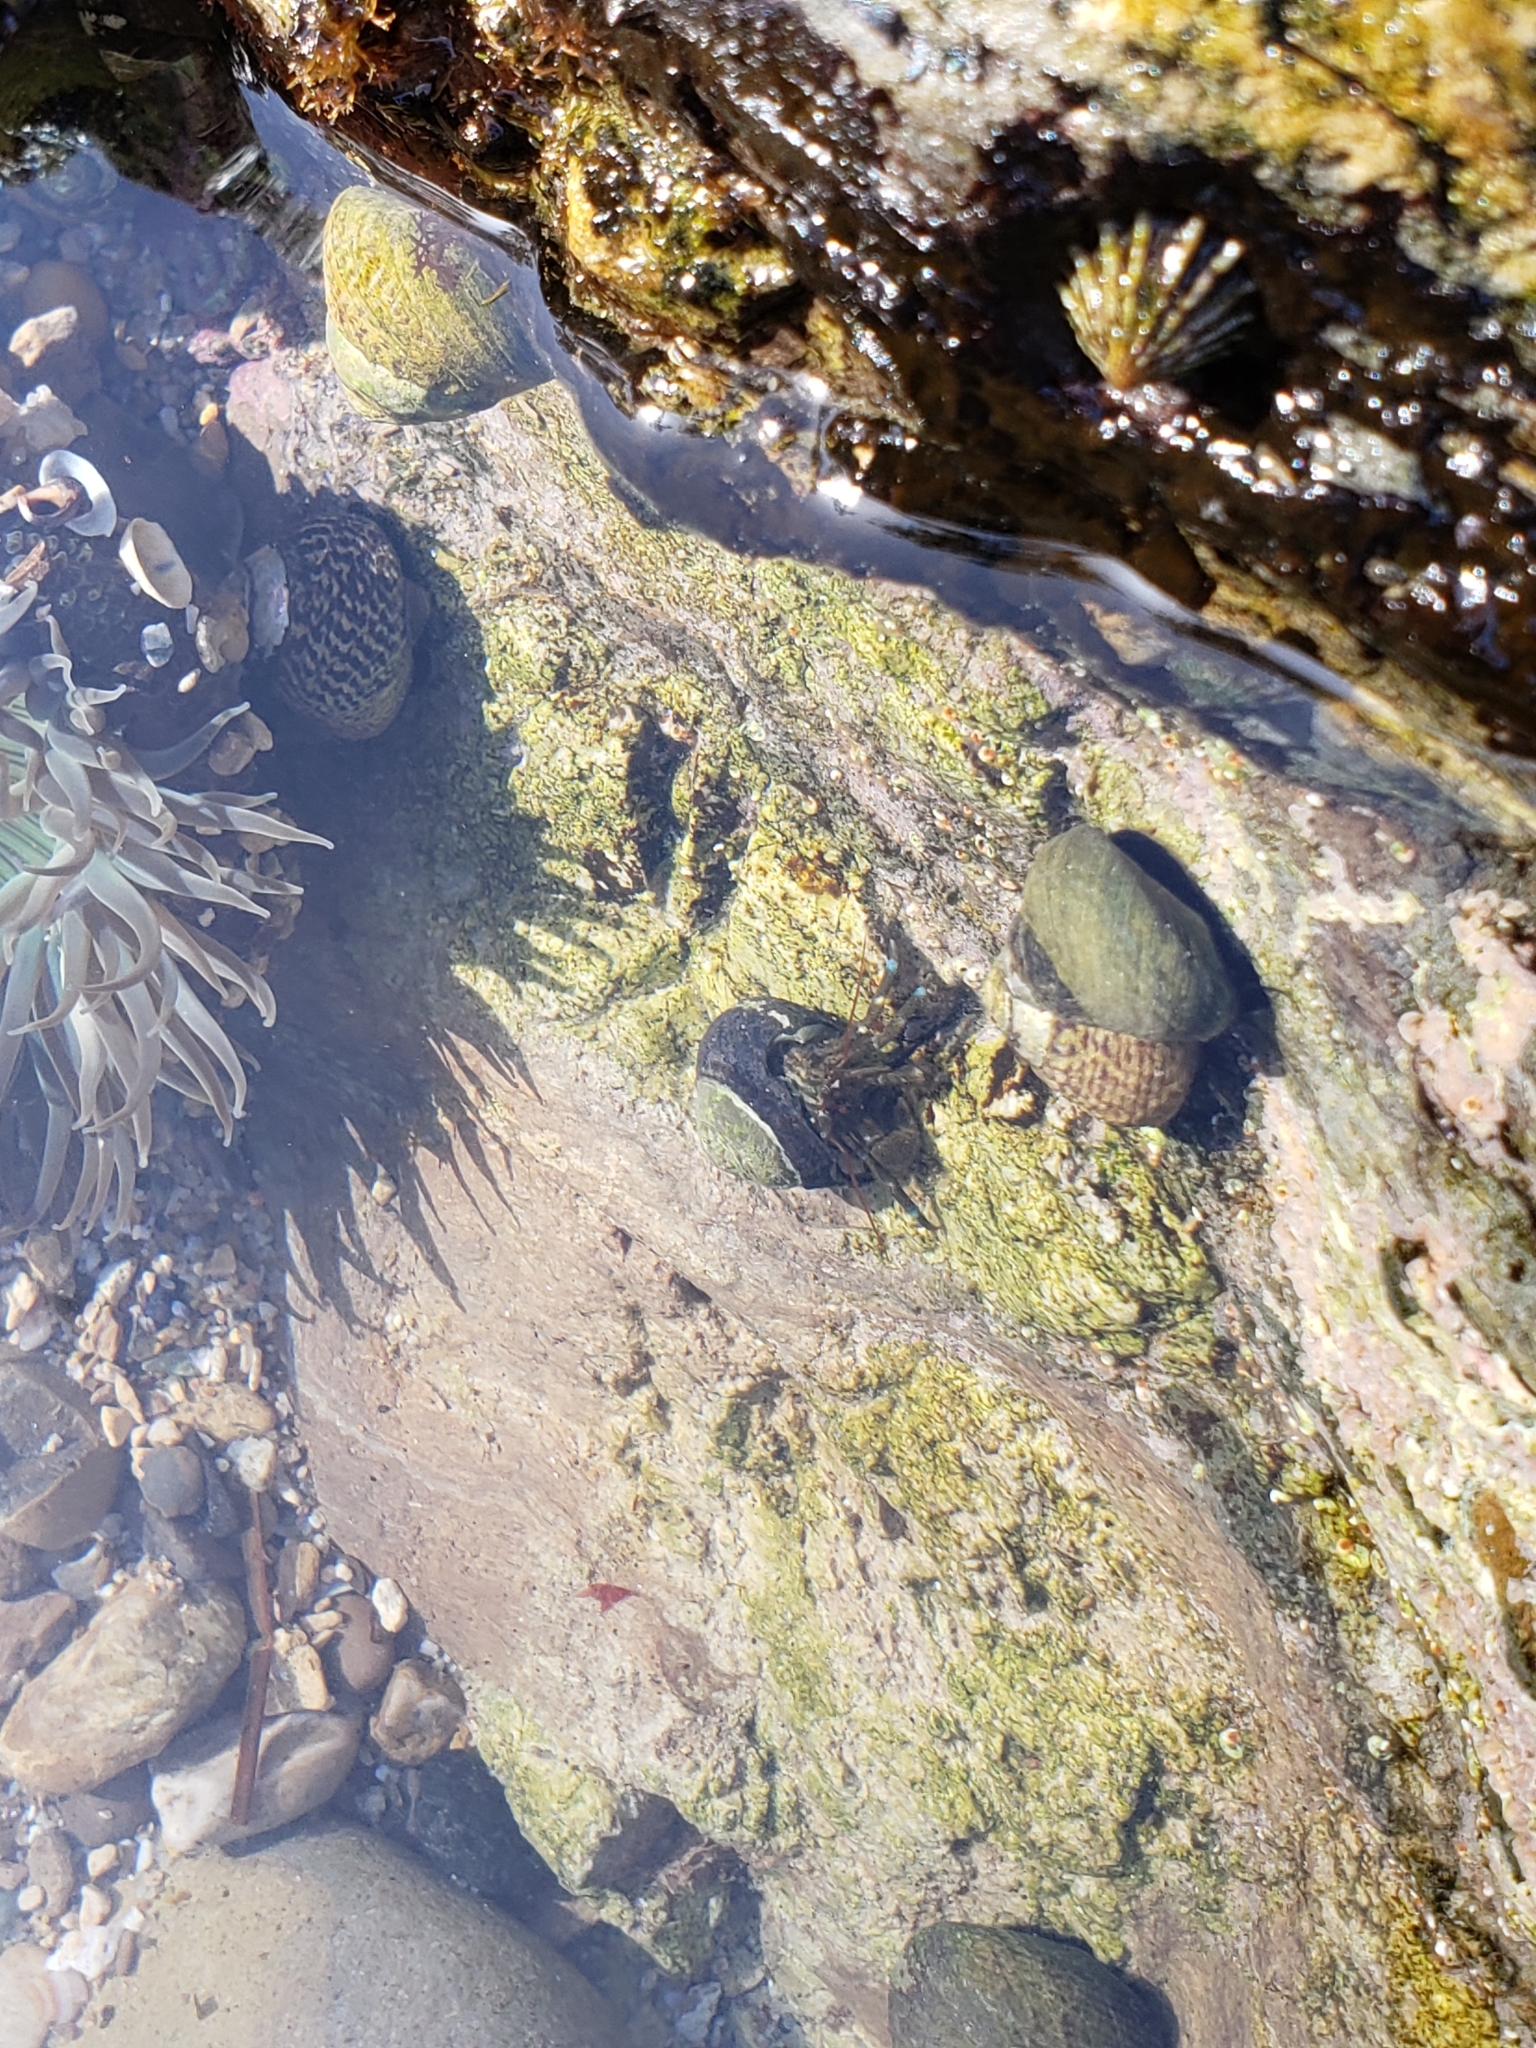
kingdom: Animalia
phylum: Arthropoda
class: Malacostraca
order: Decapoda
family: Paguridae
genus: Pagurus
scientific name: Pagurus samuelis
